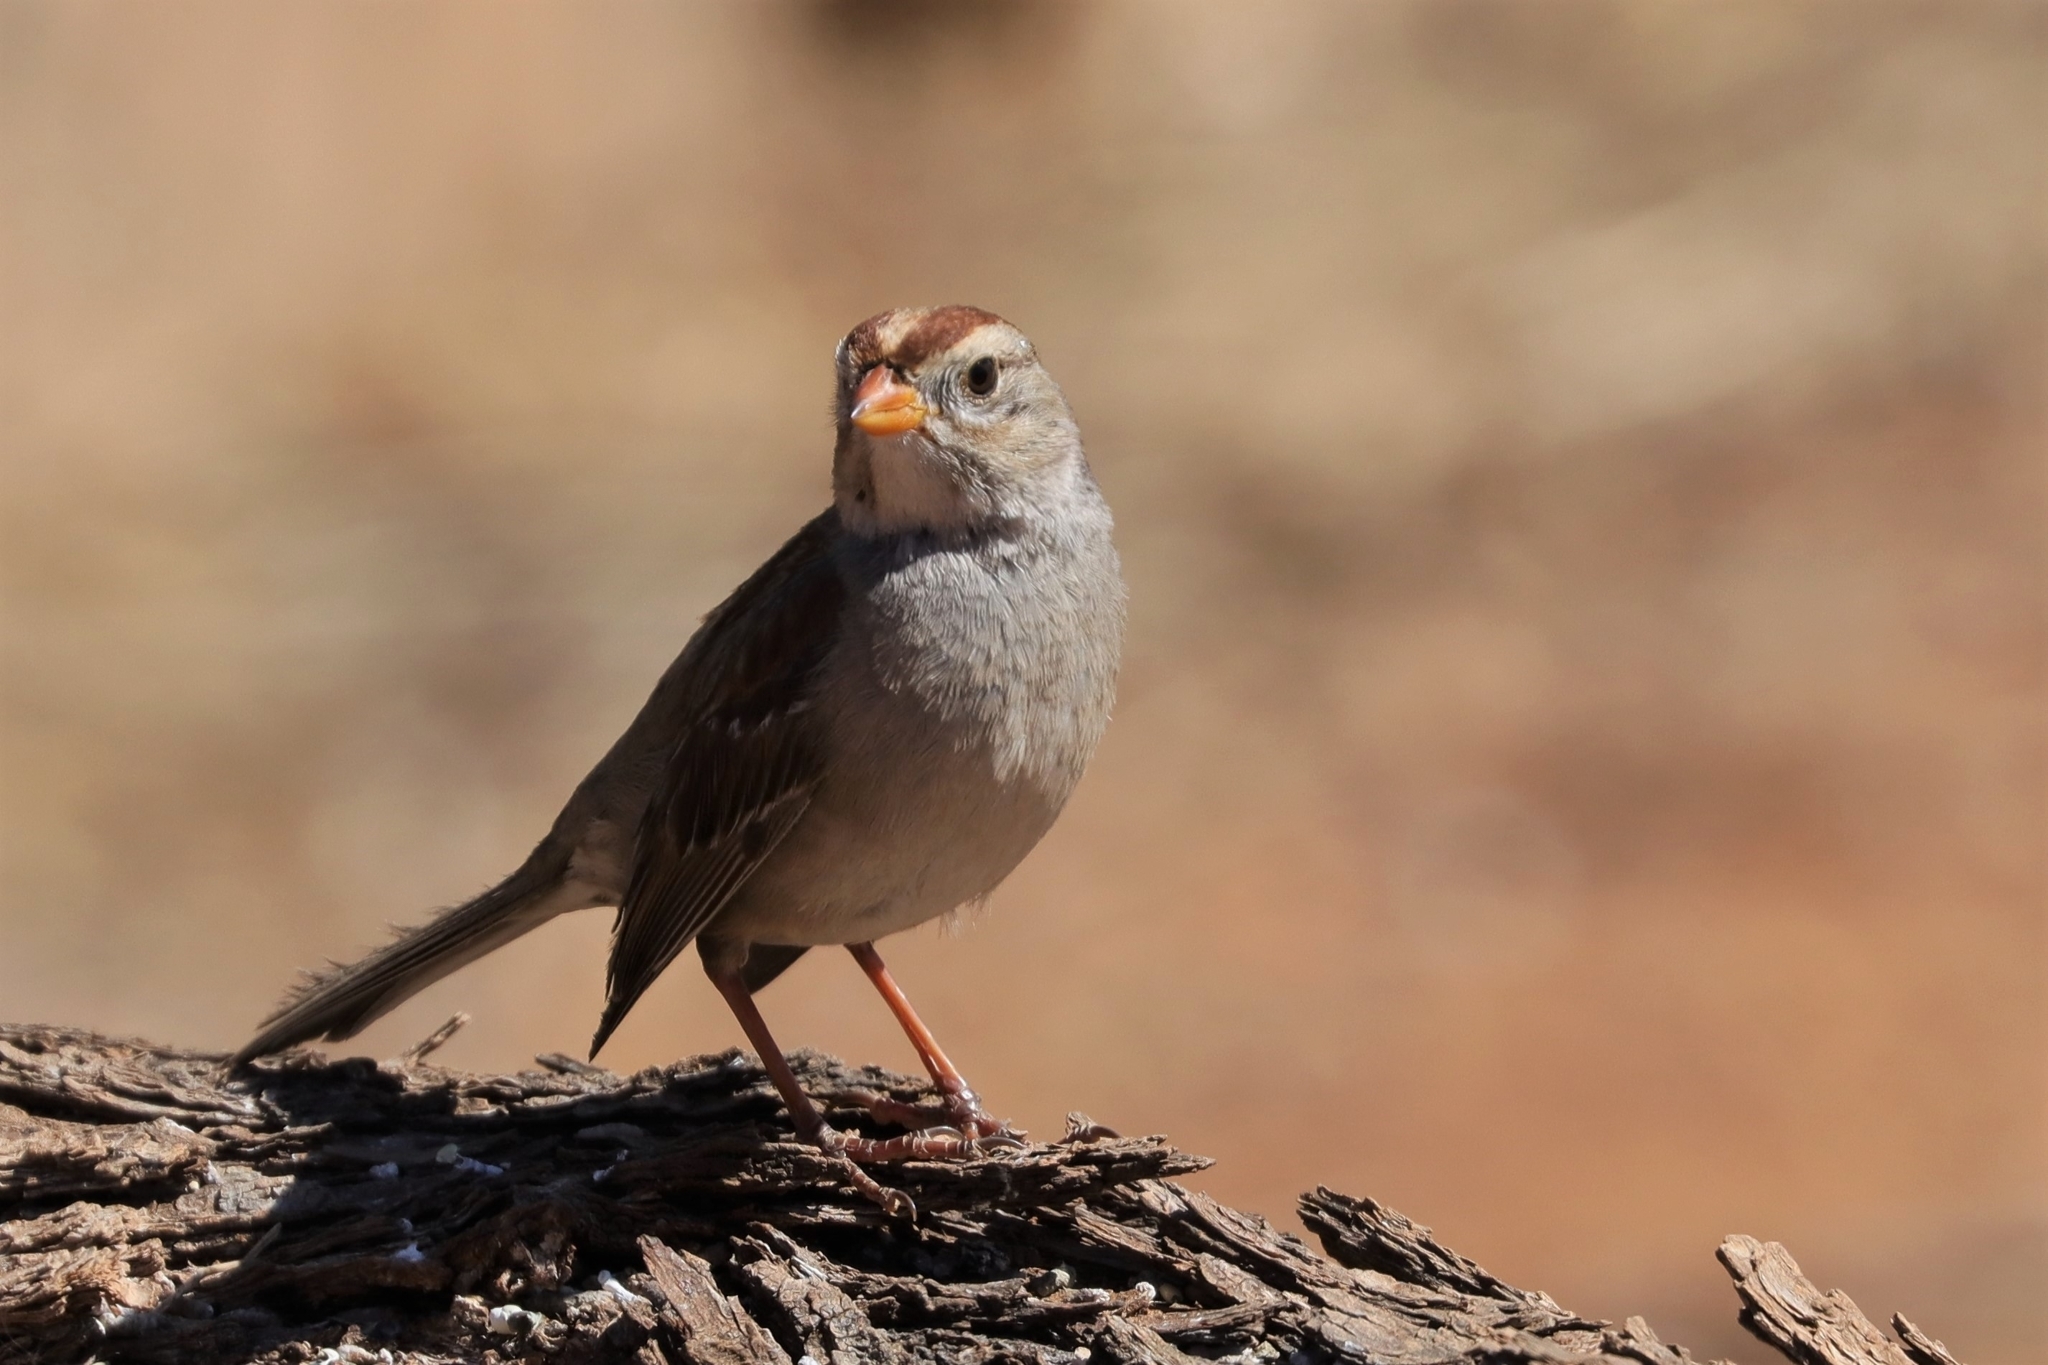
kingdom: Animalia
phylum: Chordata
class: Aves
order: Passeriformes
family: Passerellidae
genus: Zonotrichia
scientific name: Zonotrichia leucophrys
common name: White-crowned sparrow
